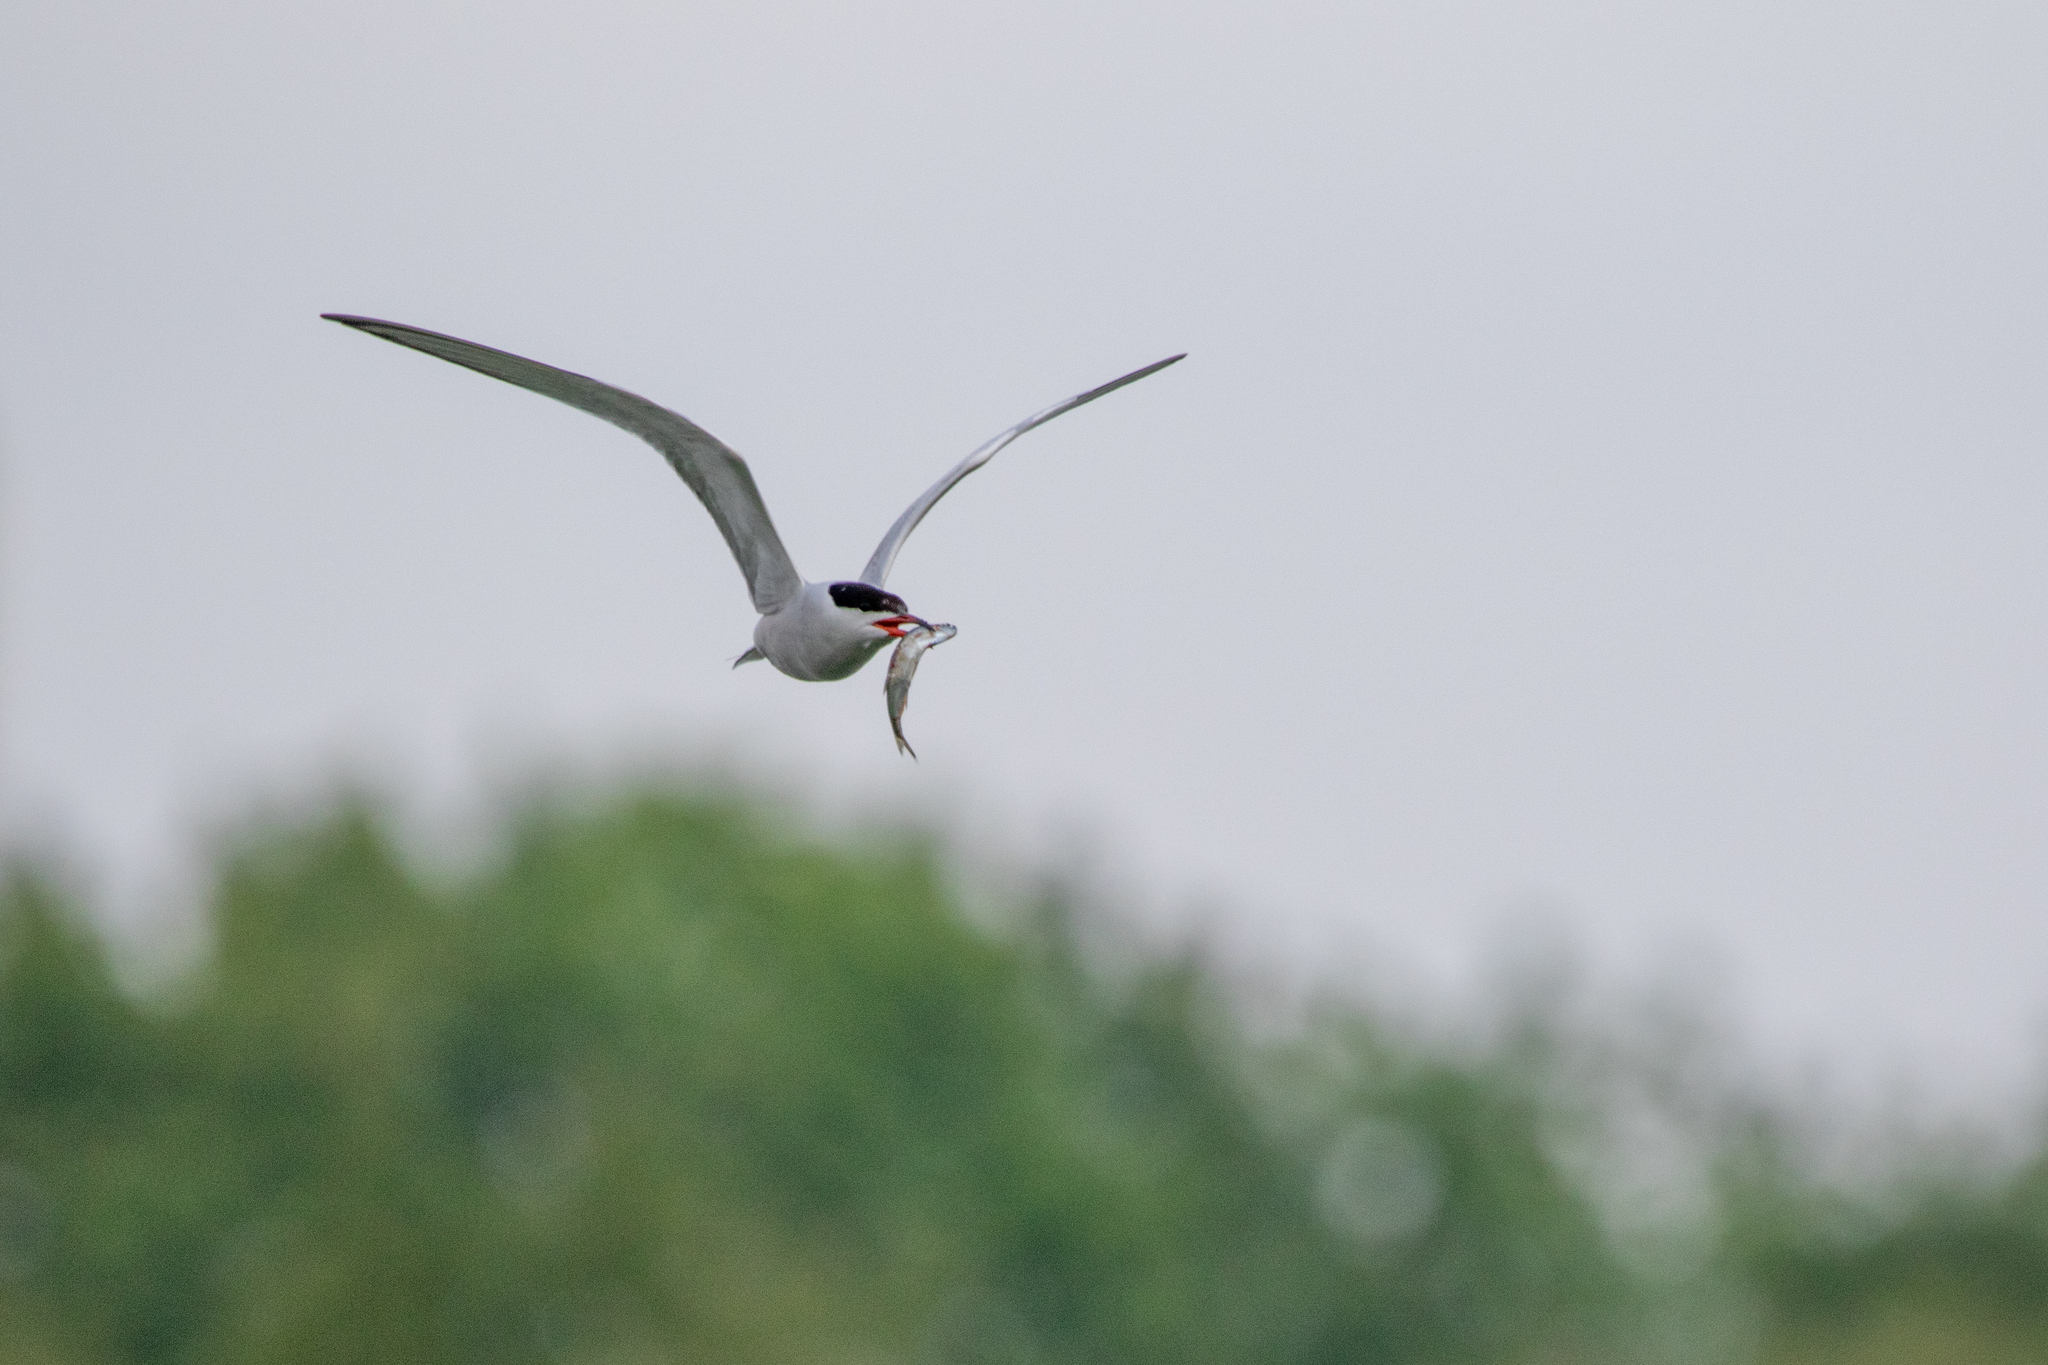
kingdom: Animalia
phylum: Chordata
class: Aves
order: Charadriiformes
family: Laridae
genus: Sterna
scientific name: Sterna hirundo
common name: Common tern
